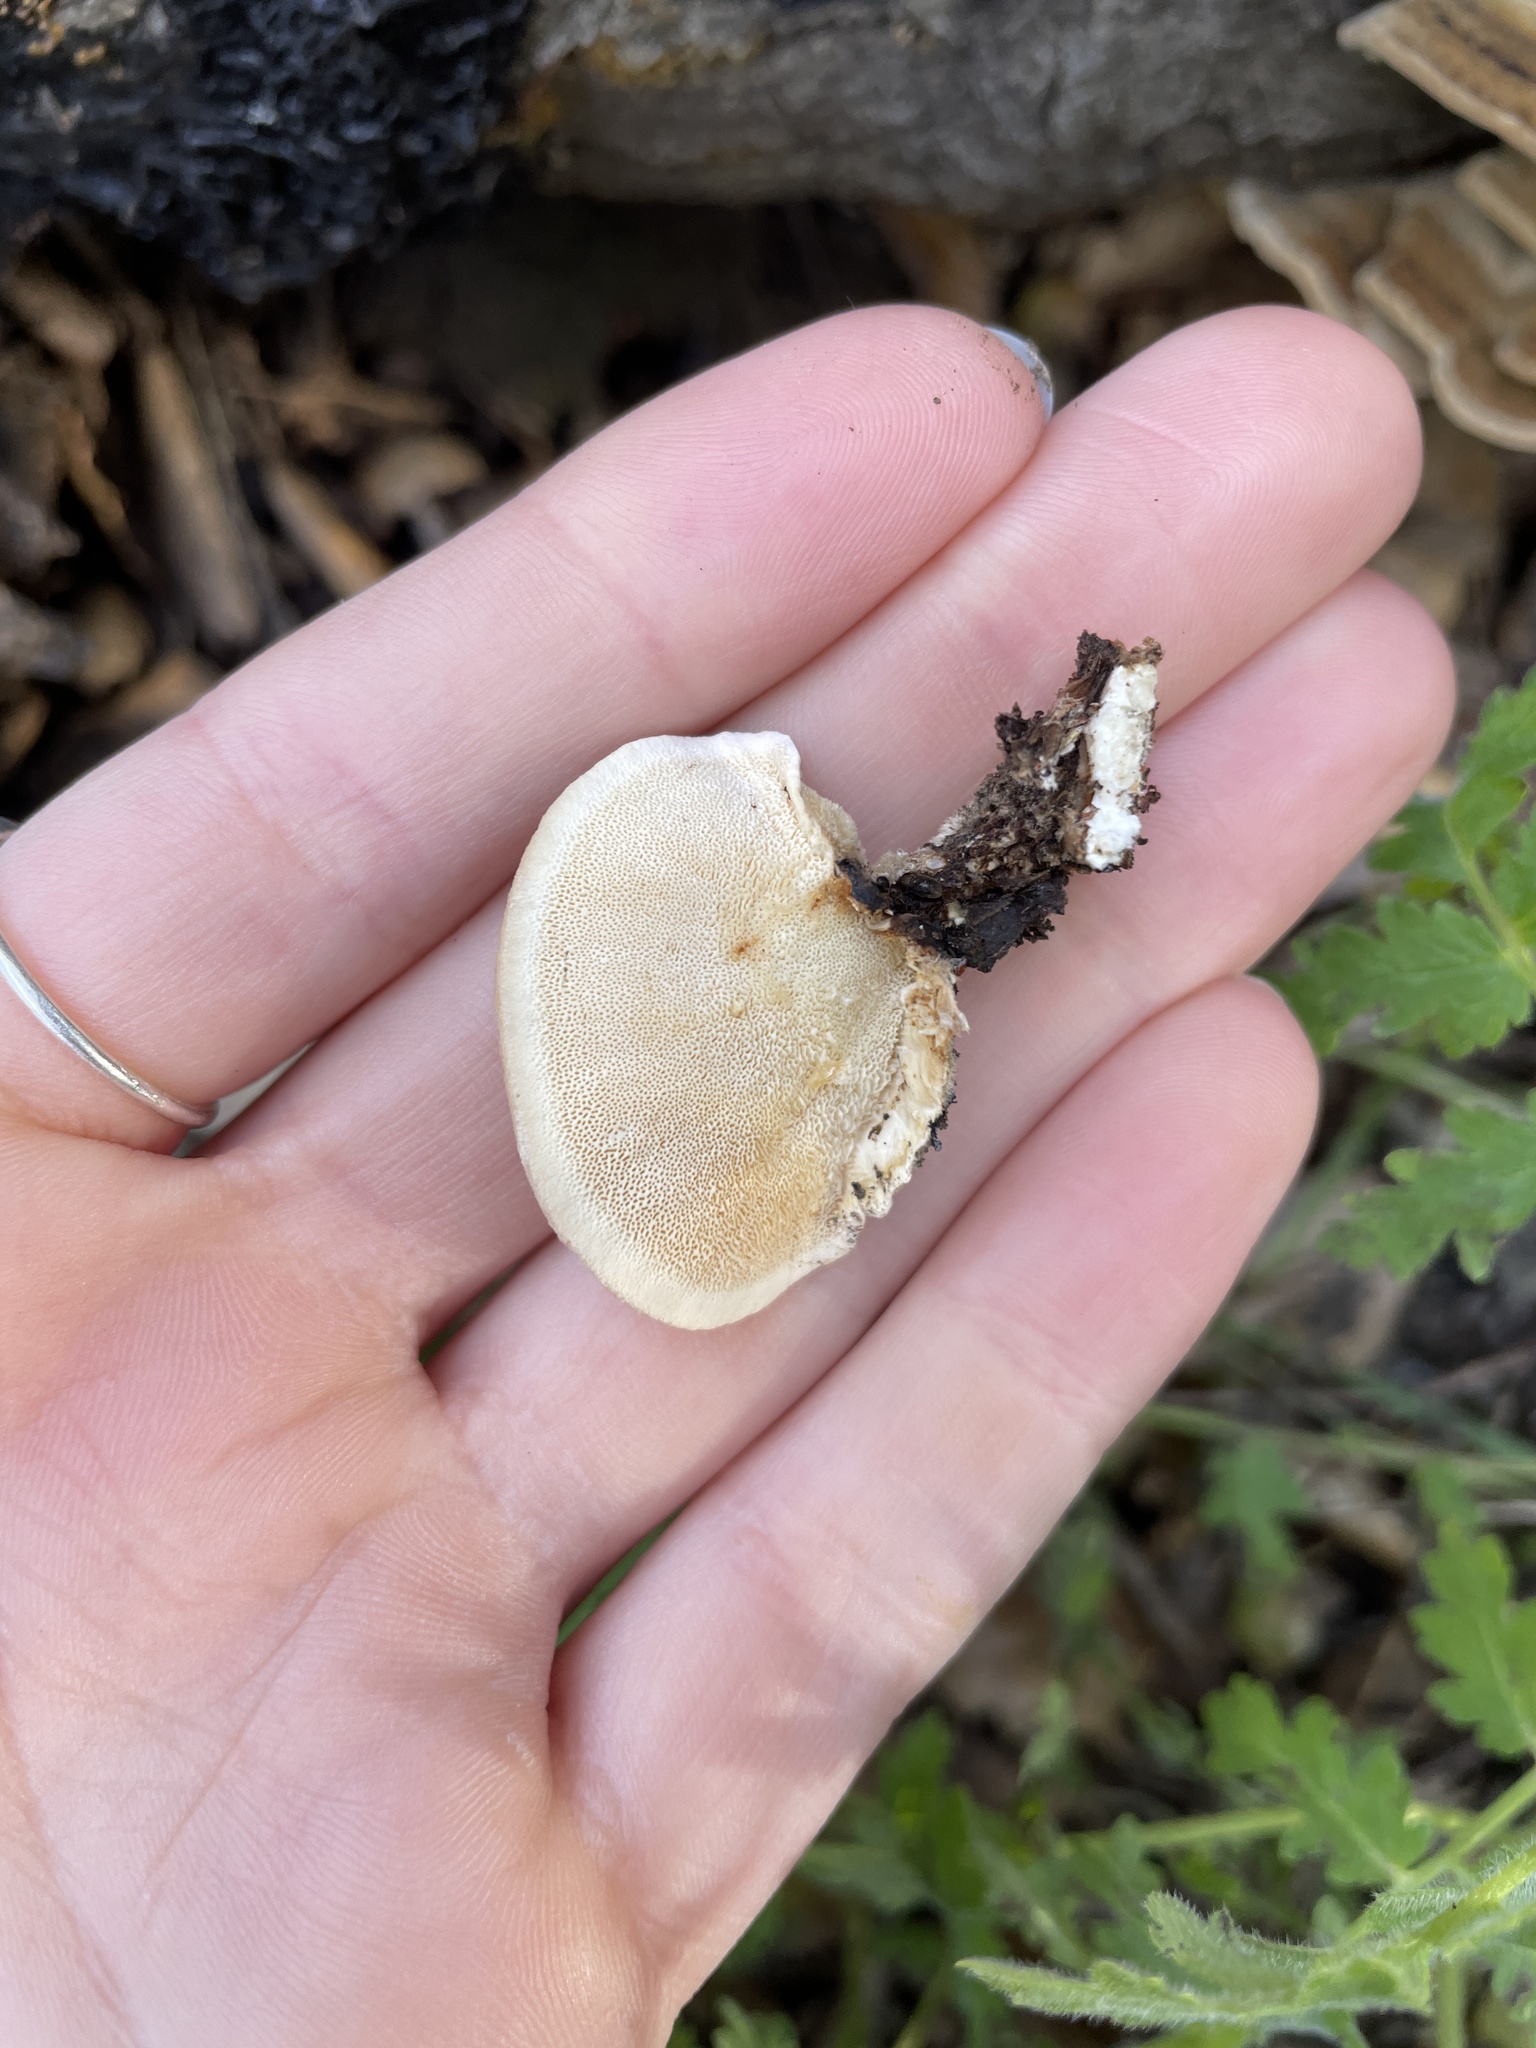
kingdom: Fungi
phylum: Basidiomycota
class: Agaricomycetes
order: Polyporales
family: Polyporaceae
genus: Trametes
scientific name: Trametes versicolor
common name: Turkeytail
